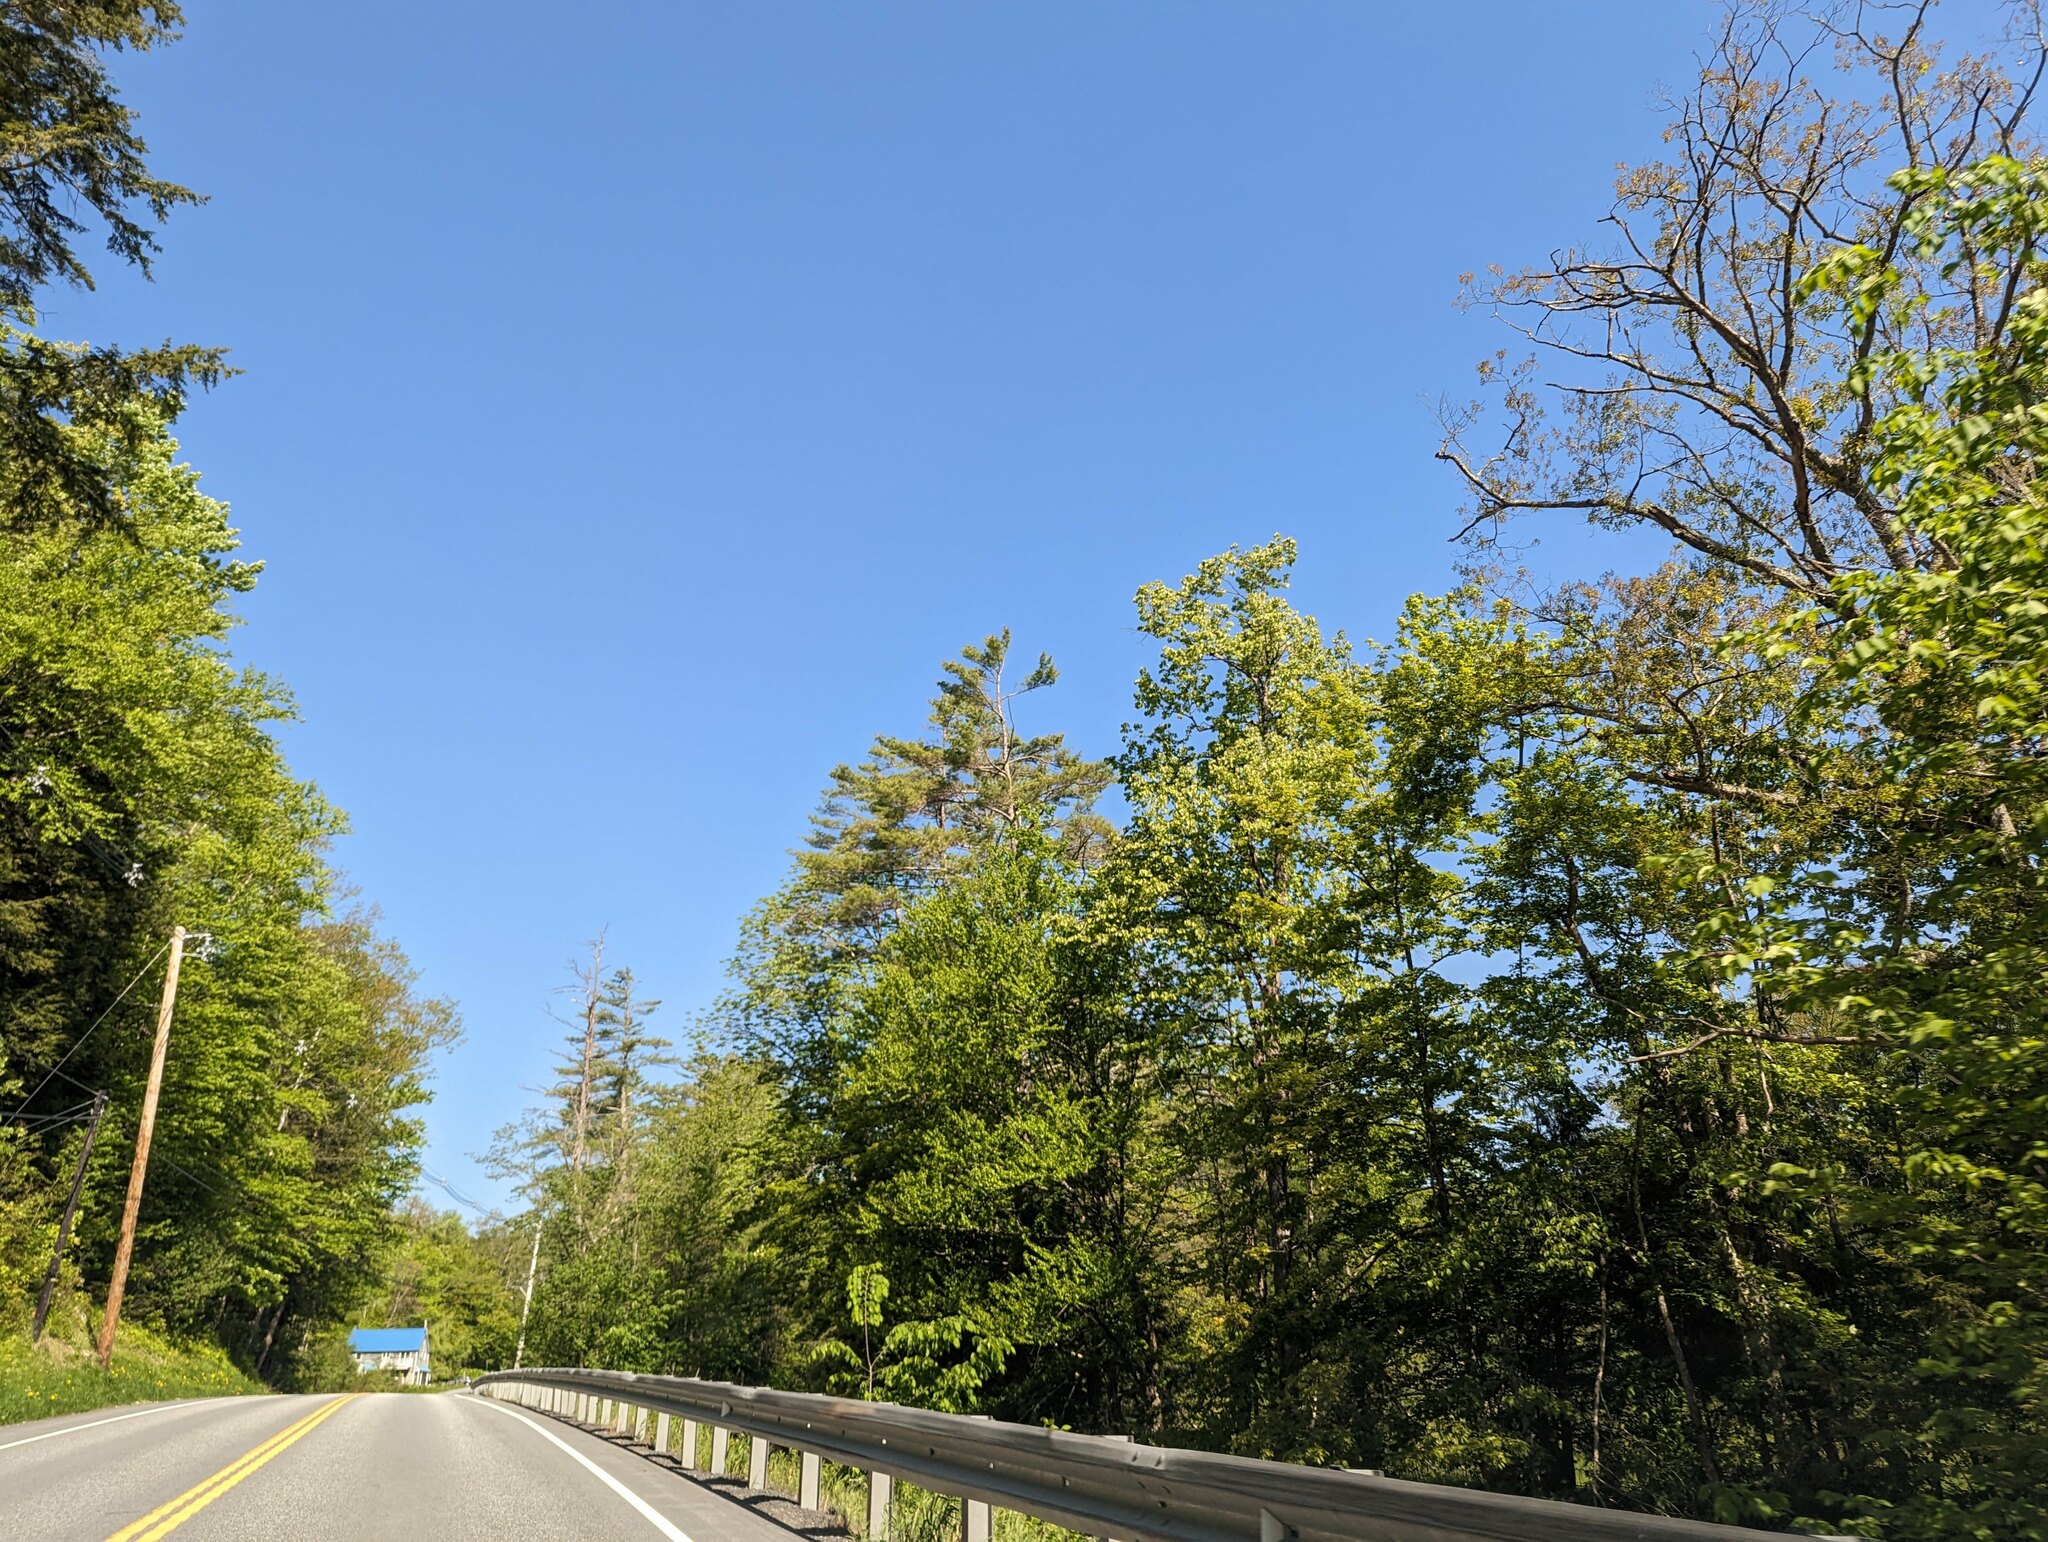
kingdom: Plantae
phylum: Tracheophyta
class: Pinopsida
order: Pinales
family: Pinaceae
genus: Pinus
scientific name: Pinus strobus
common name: Weymouth pine
